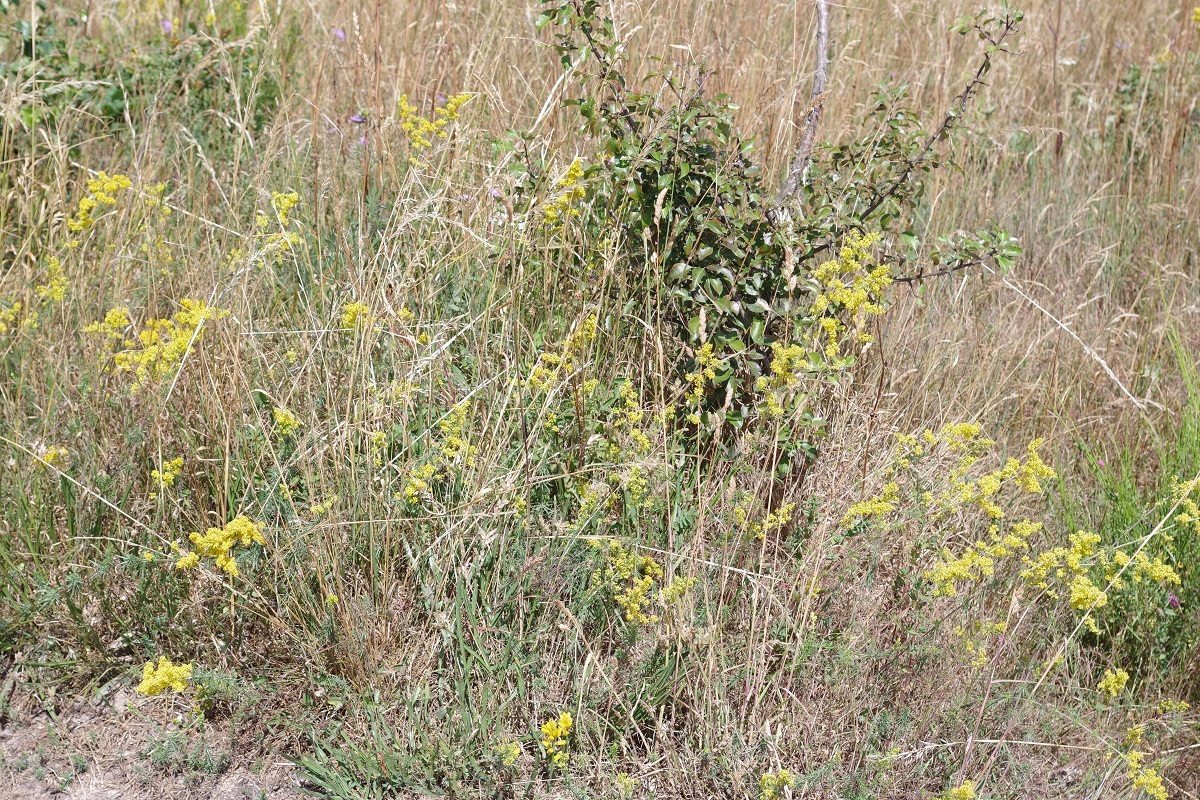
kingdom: Plantae
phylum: Tracheophyta
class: Magnoliopsida
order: Gentianales
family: Rubiaceae
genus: Galium
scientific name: Galium verum
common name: Lady's bedstraw
